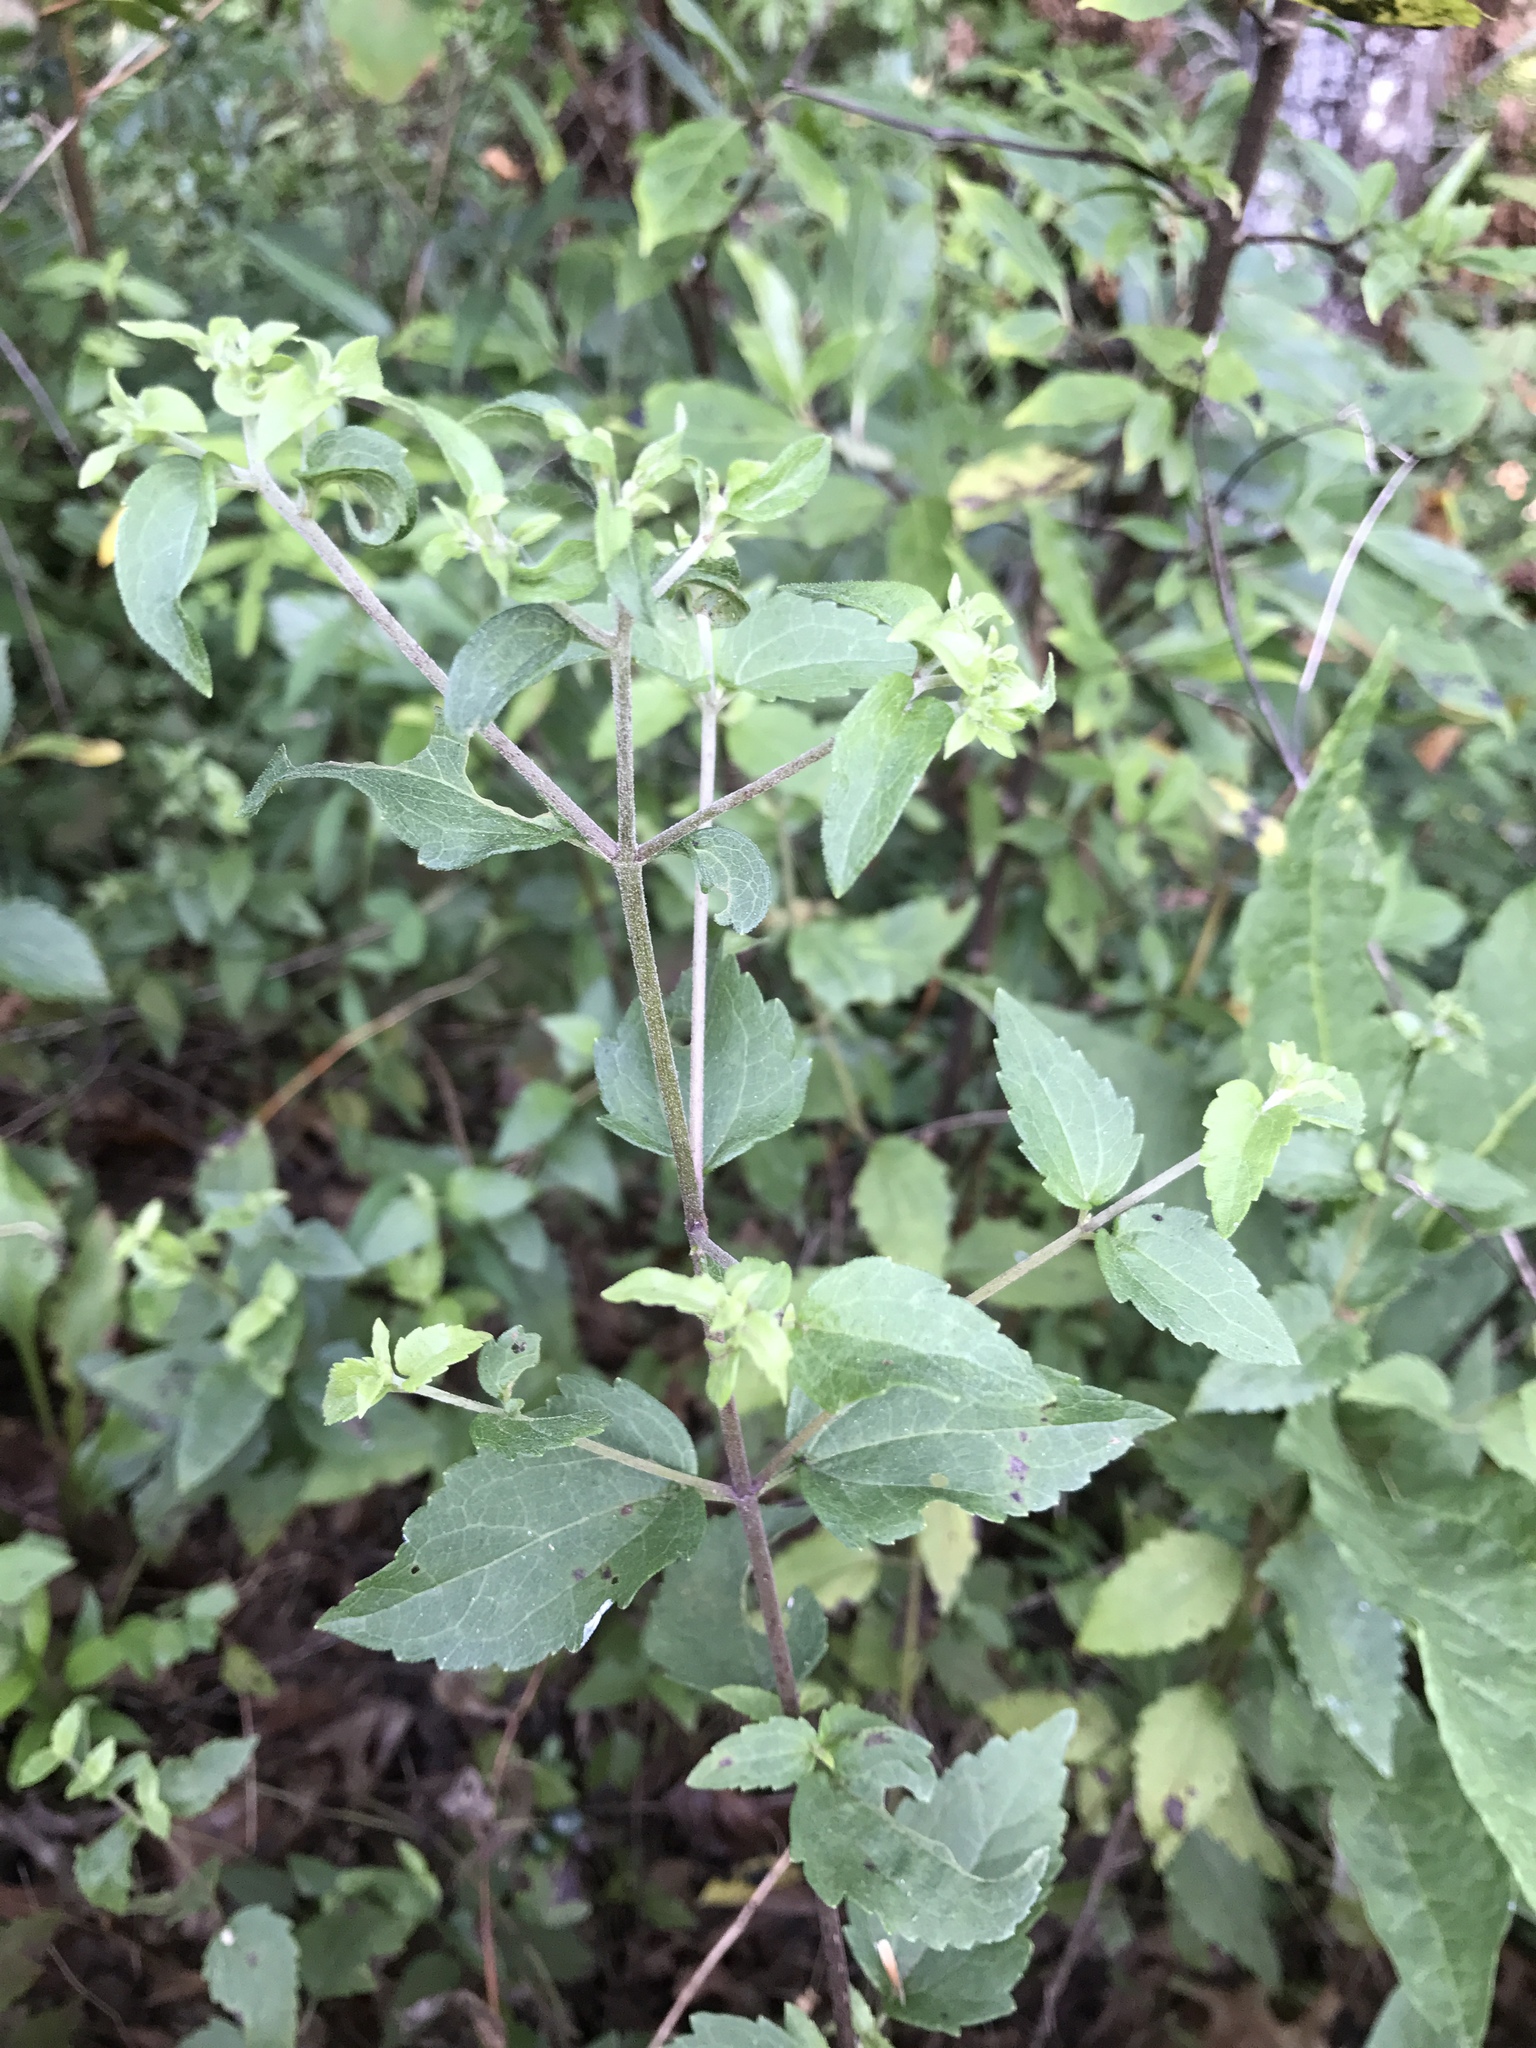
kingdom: Plantae
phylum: Tracheophyta
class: Magnoliopsida
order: Asterales
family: Asteraceae
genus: Ageratina
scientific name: Ageratina aromatica
